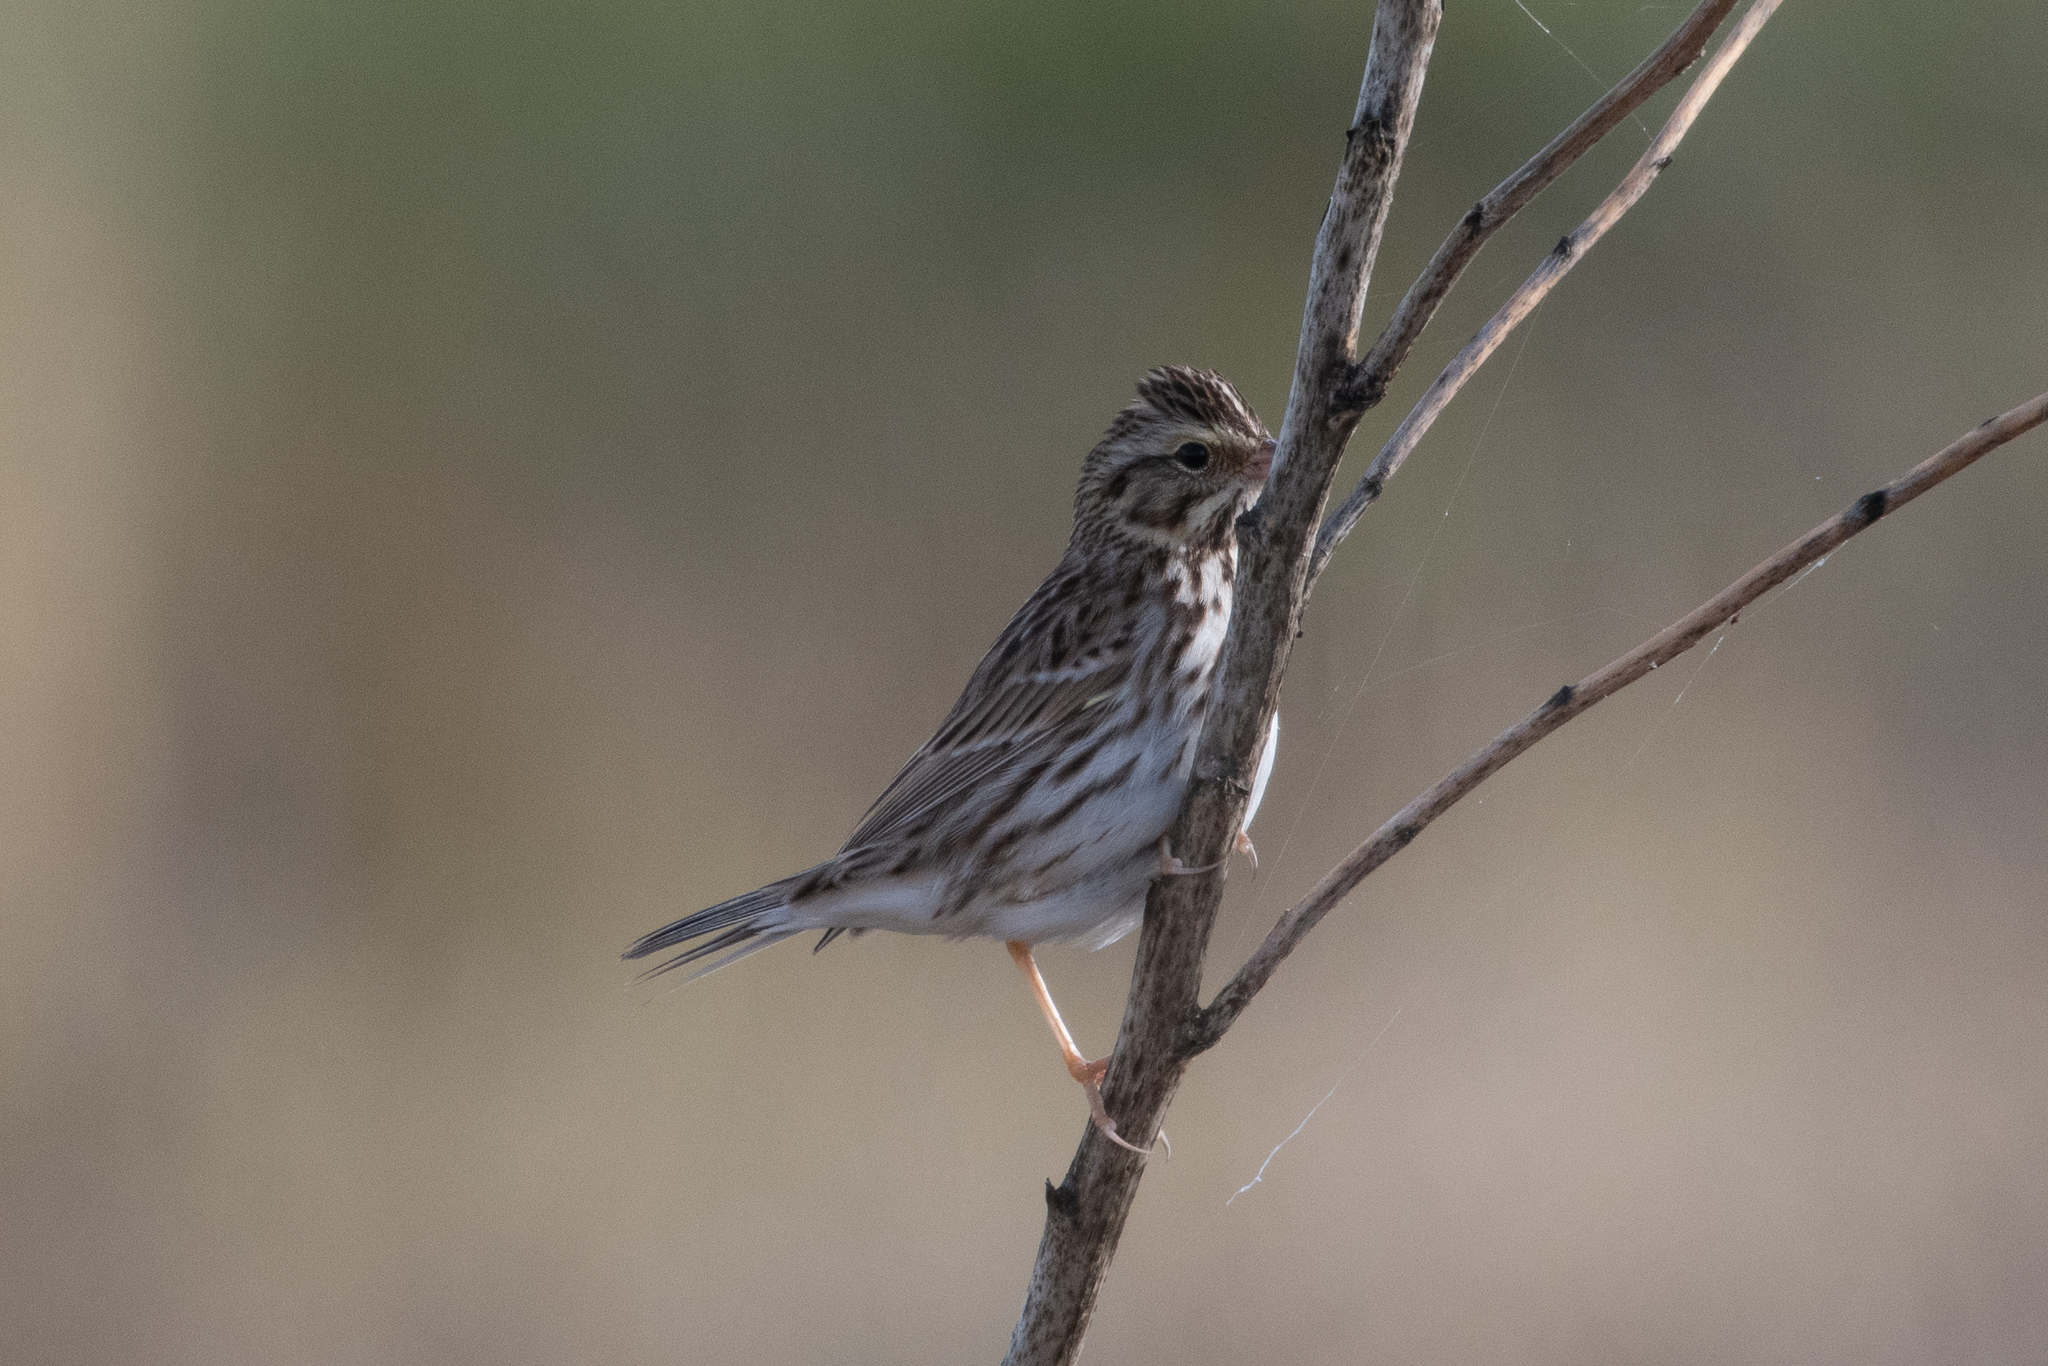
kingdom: Animalia
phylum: Chordata
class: Aves
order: Passeriformes
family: Passerellidae
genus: Passerculus
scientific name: Passerculus sandwichensis
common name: Savannah sparrow
